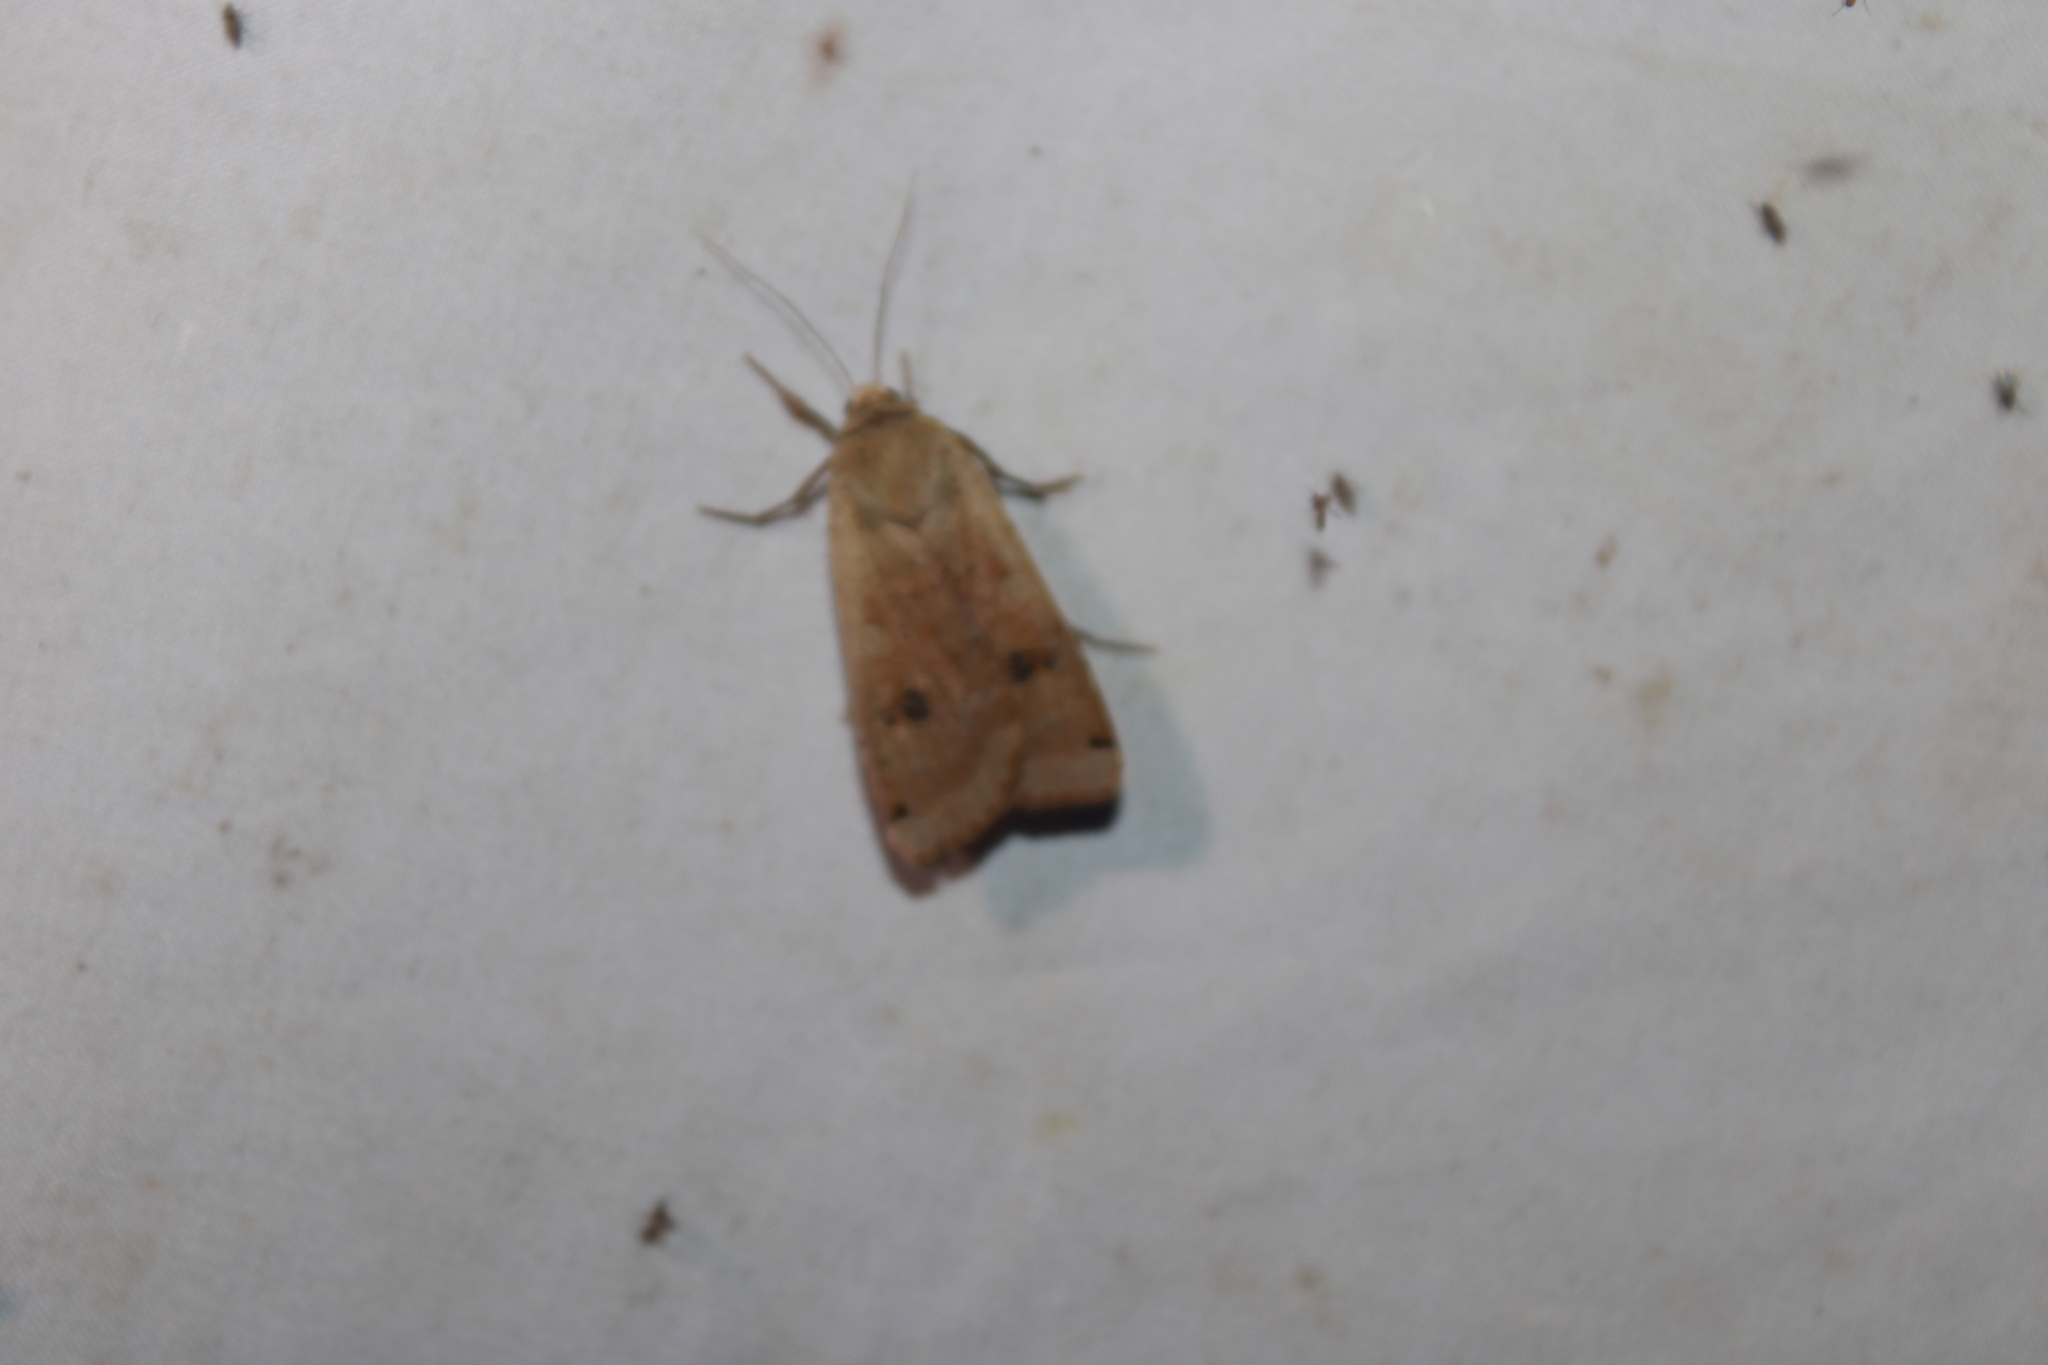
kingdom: Animalia
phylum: Arthropoda
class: Insecta
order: Lepidoptera
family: Noctuidae
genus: Noctua
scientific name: Noctua pronuba
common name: Large yellow underwing
